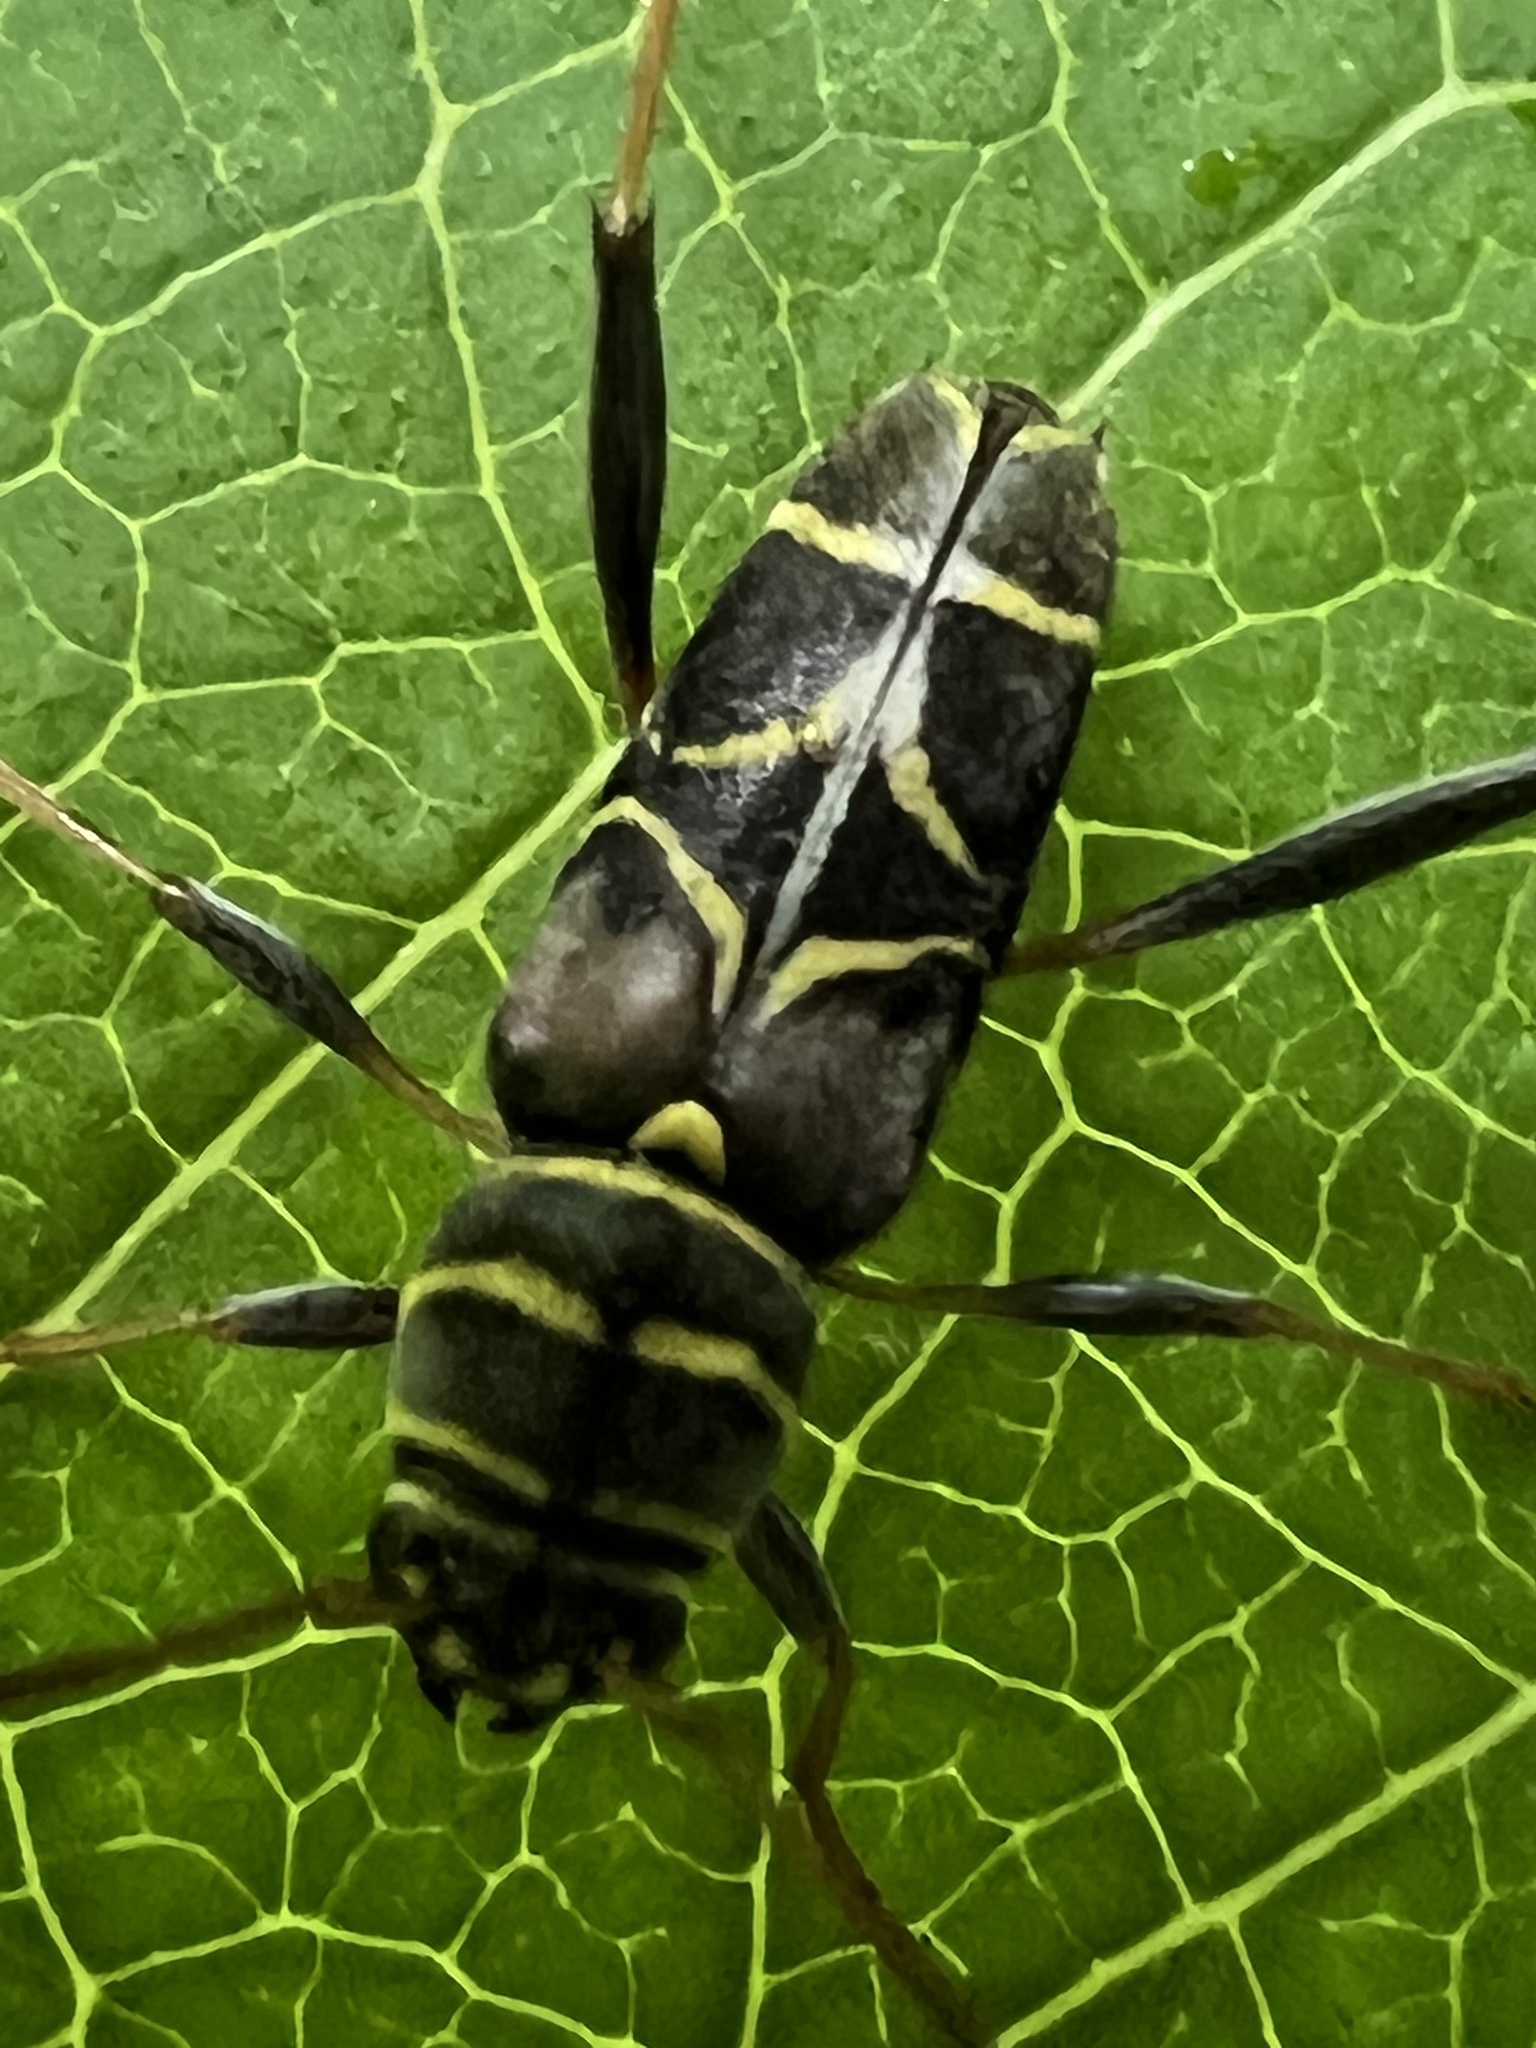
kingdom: Animalia
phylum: Arthropoda
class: Insecta
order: Coleoptera
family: Cerambycidae
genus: Neoclytus
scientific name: Neoclytus scutellaris
